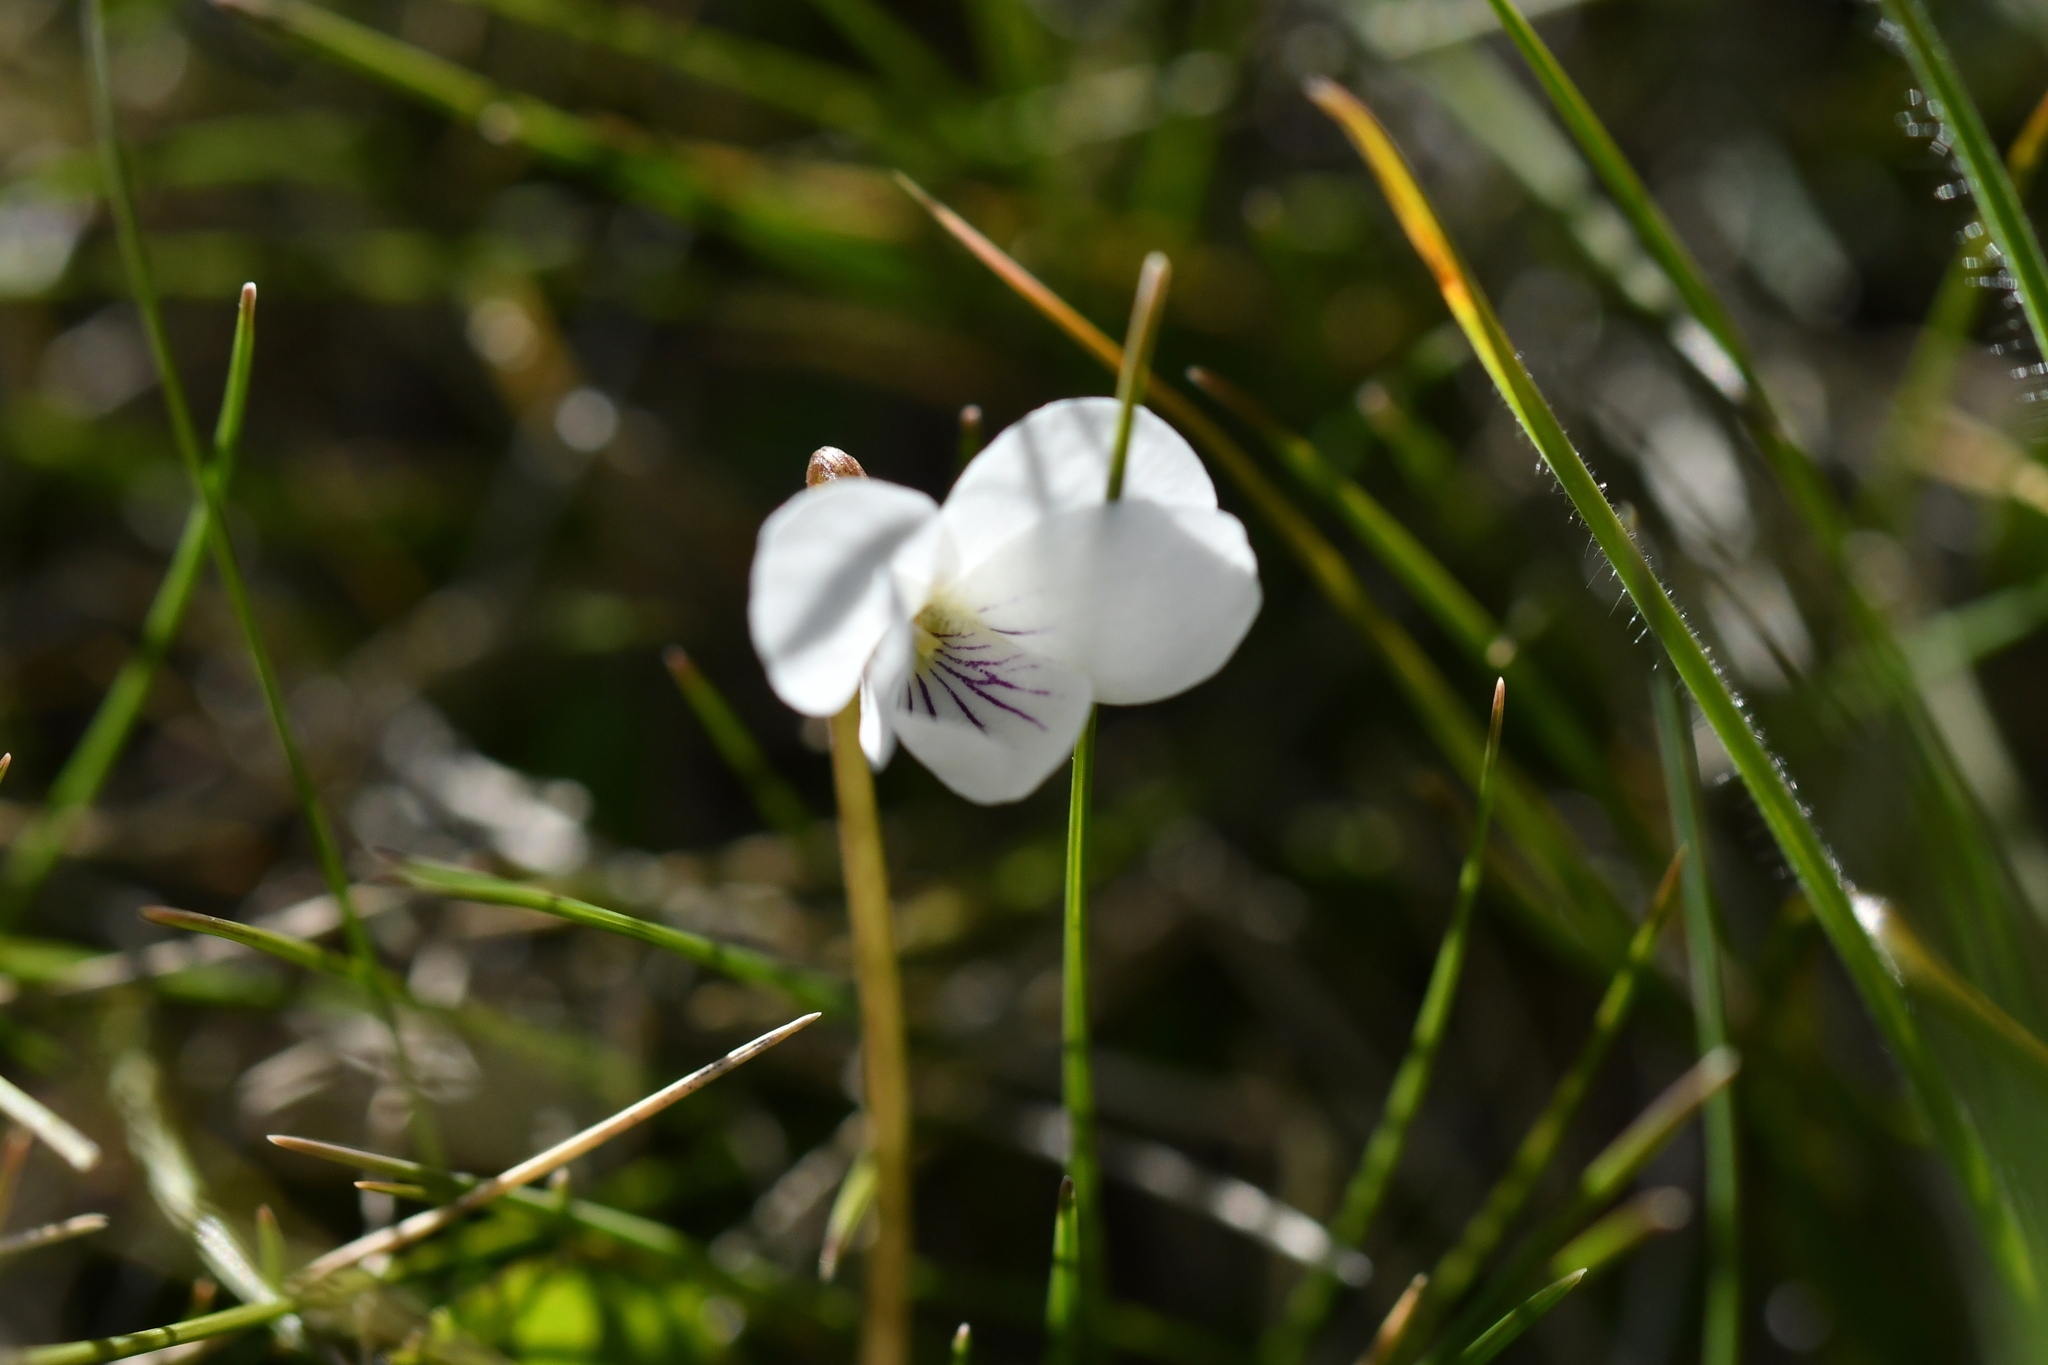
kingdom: Plantae
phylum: Tracheophyta
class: Magnoliopsida
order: Malpighiales
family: Violaceae
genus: Viola
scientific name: Viola cunninghamii
